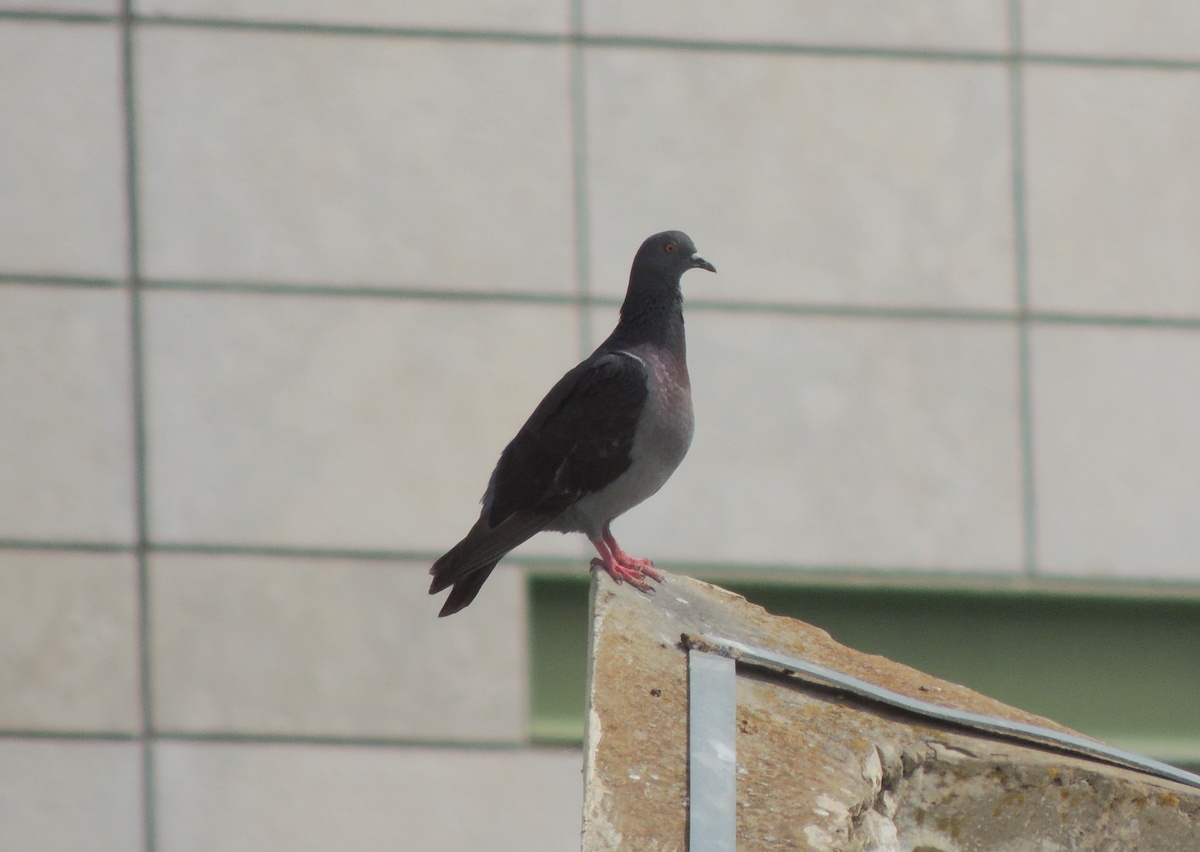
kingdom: Animalia
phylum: Chordata
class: Aves
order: Columbiformes
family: Columbidae
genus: Columba
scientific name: Columba livia
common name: Rock pigeon
